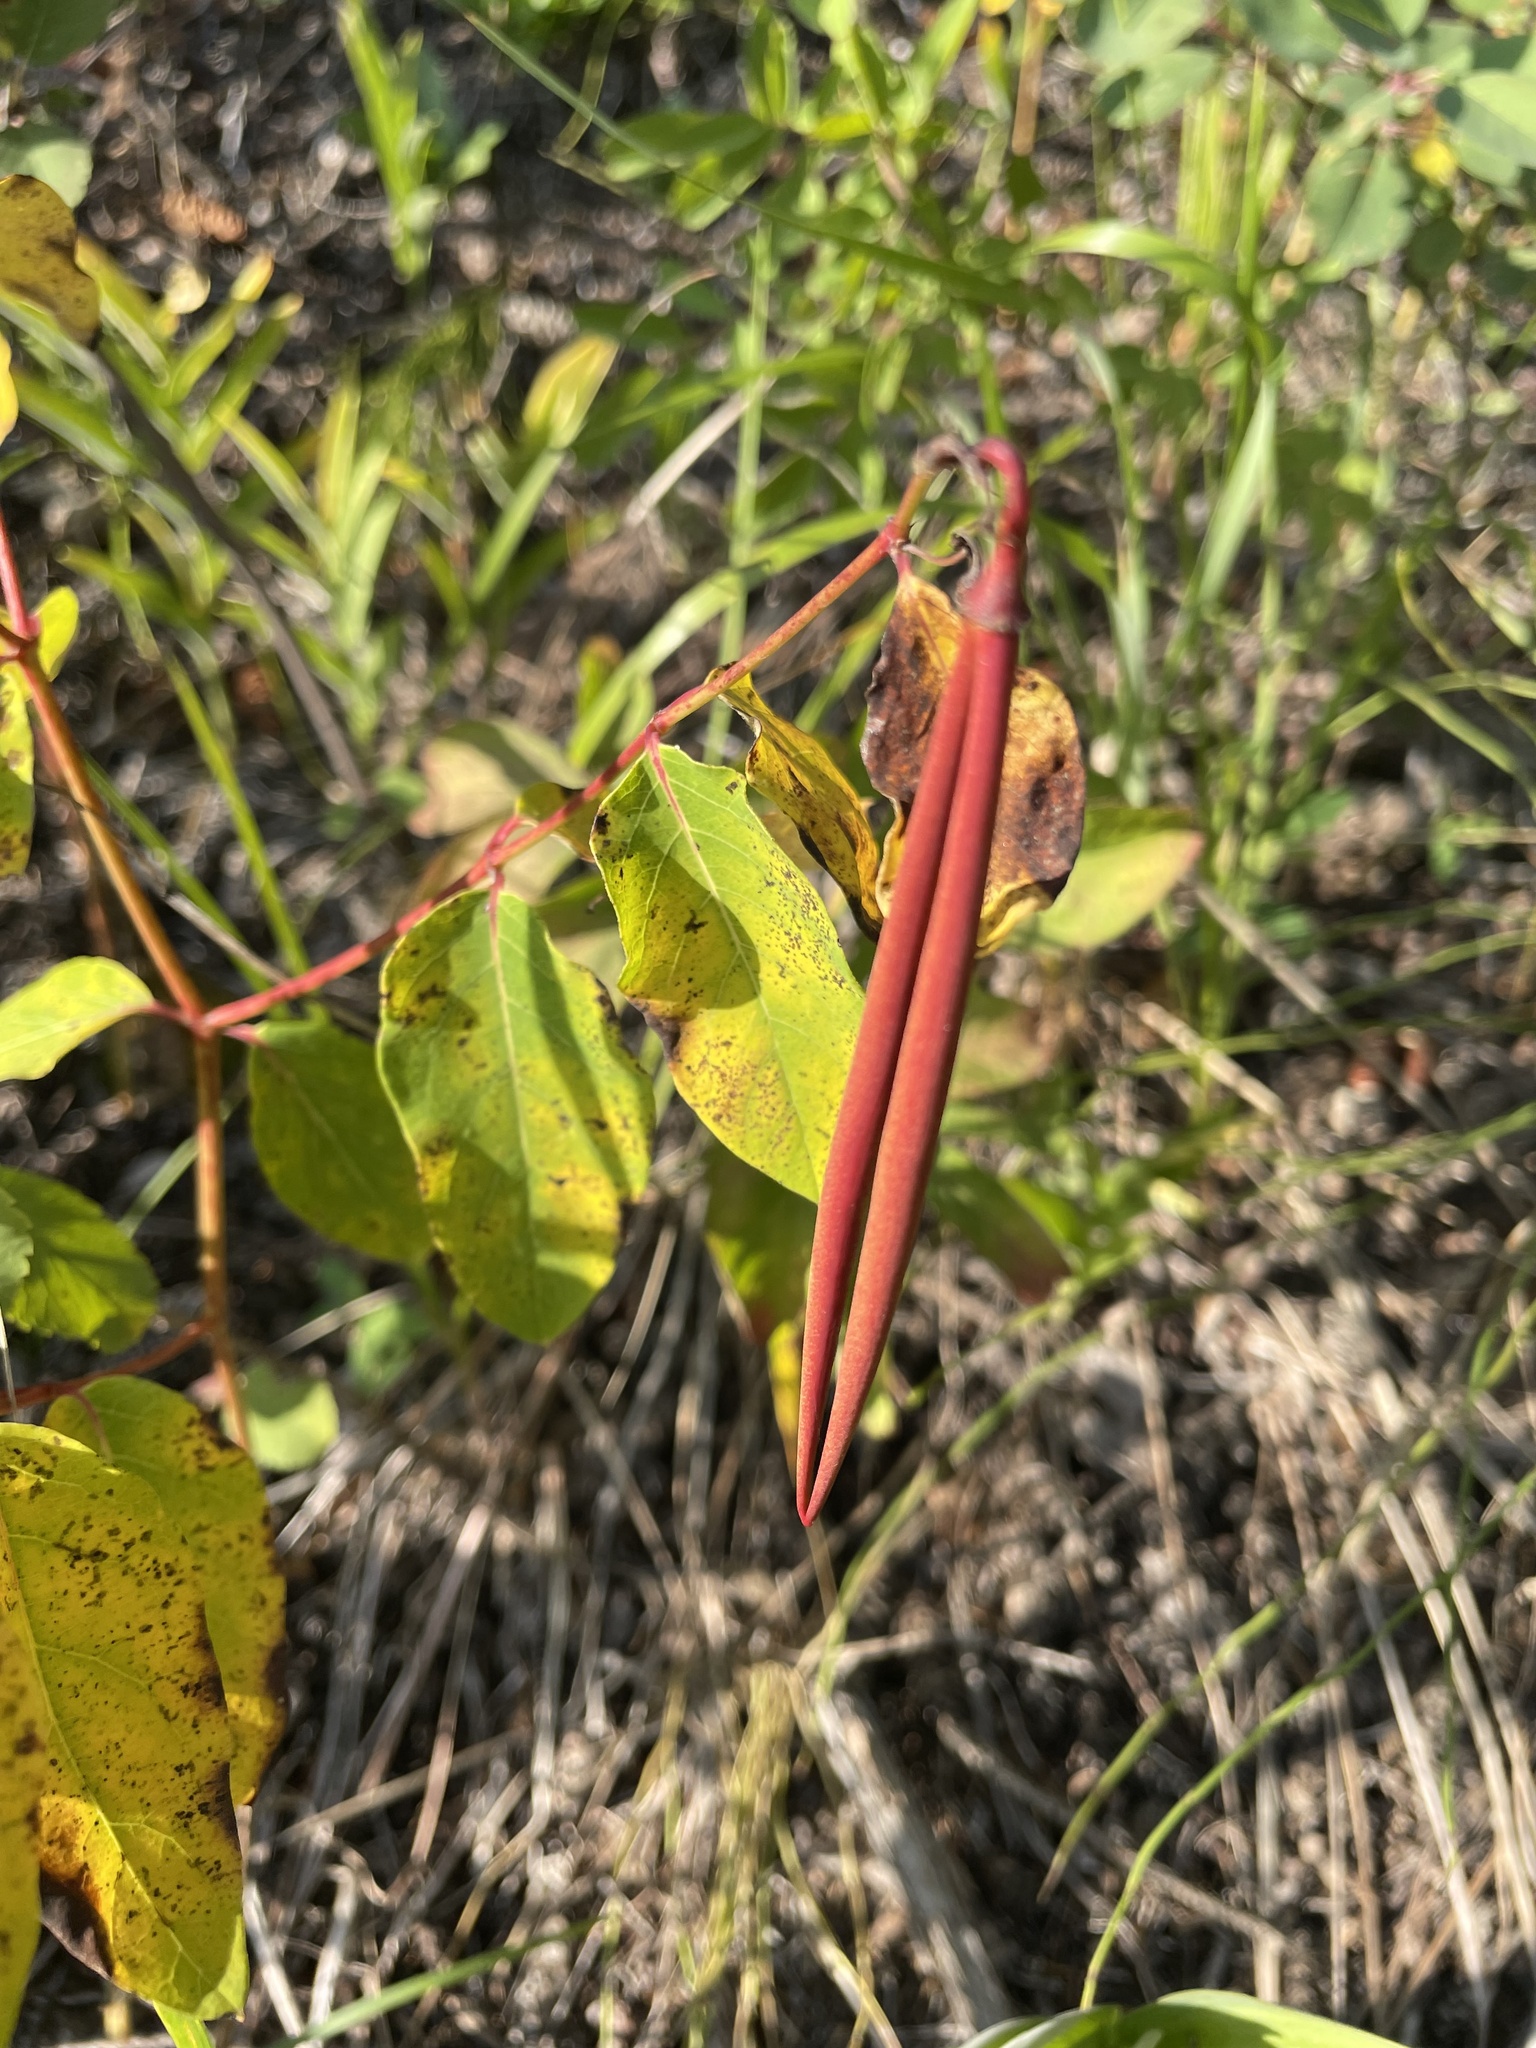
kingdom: Plantae
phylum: Tracheophyta
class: Magnoliopsida
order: Gentianales
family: Apocynaceae
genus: Apocynum
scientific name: Apocynum androsaemifolium
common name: Spreading dogbane
